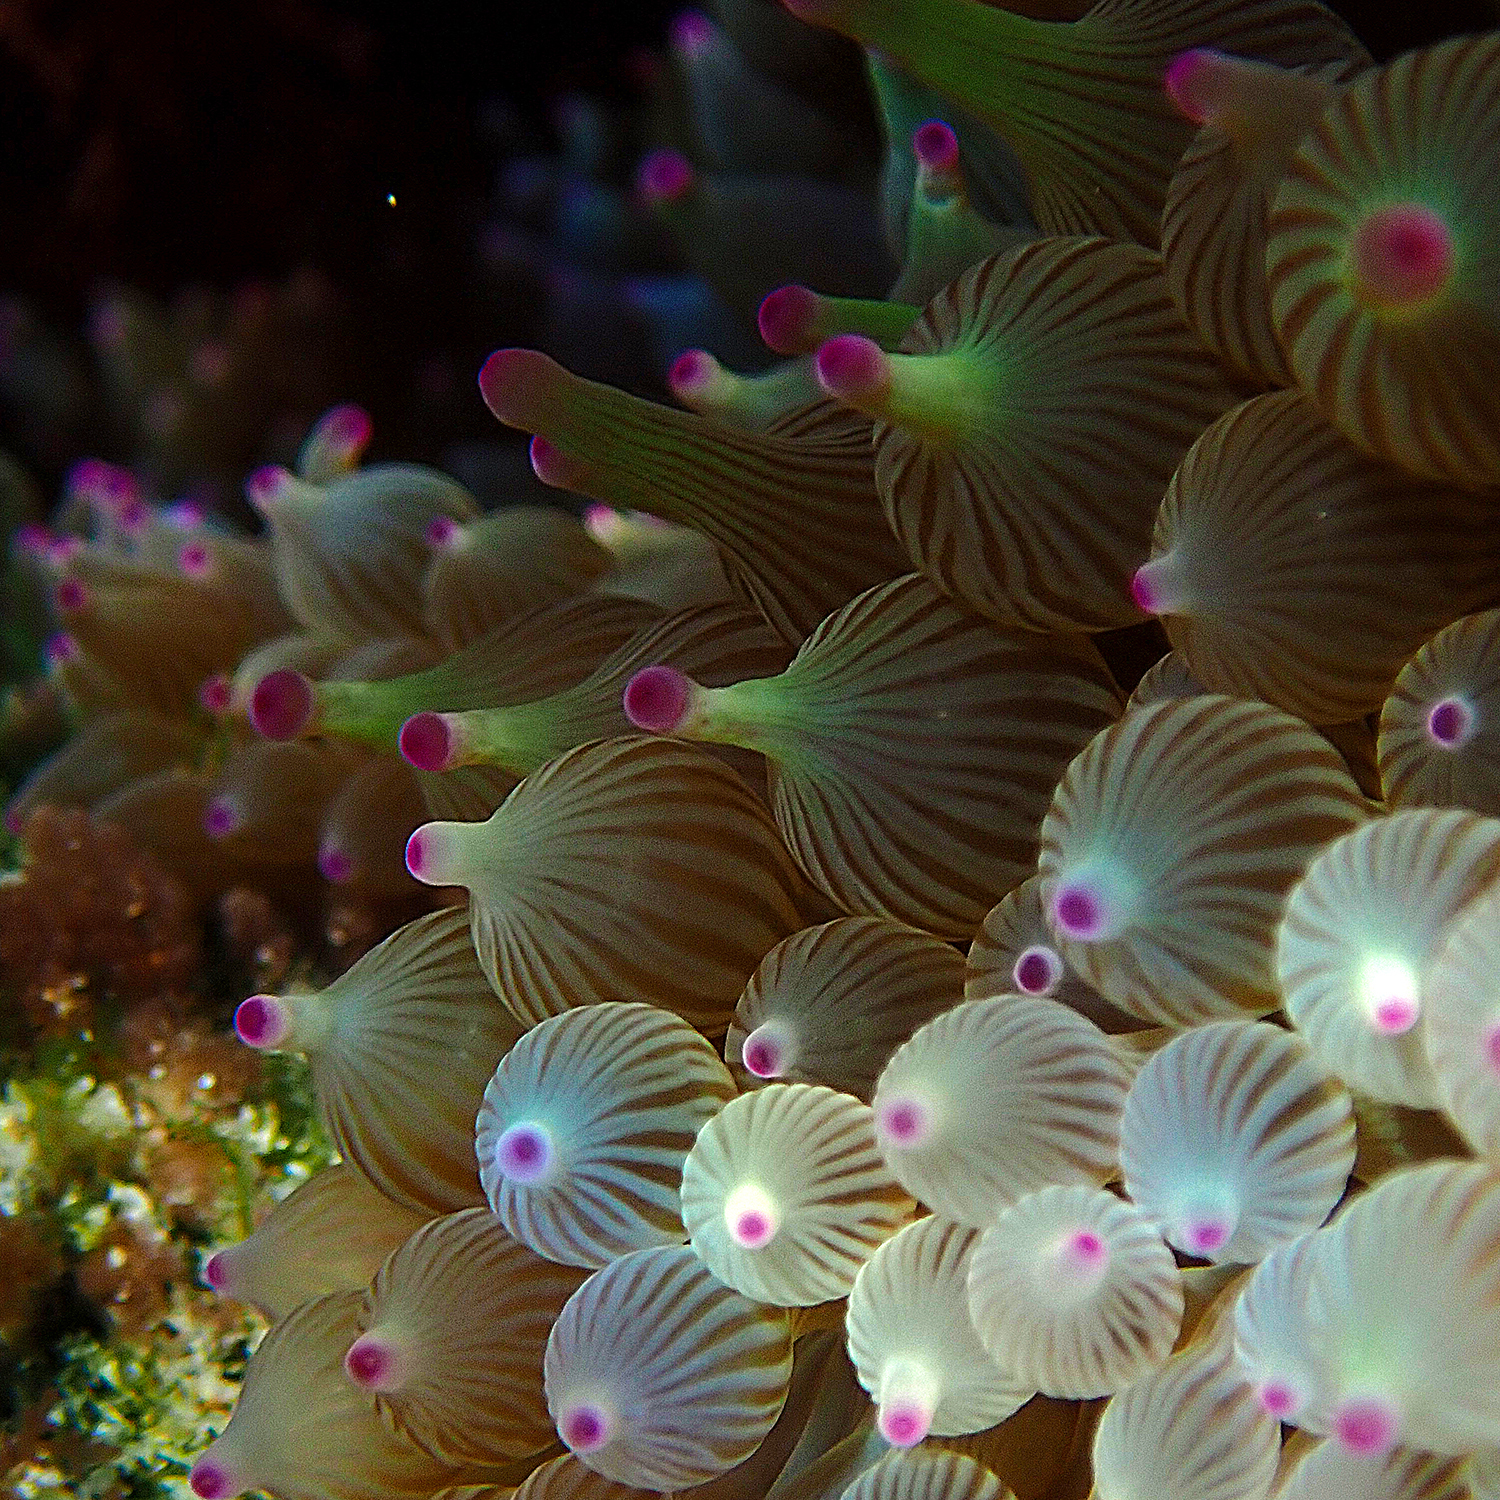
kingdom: Animalia
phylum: Cnidaria
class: Anthozoa
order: Actiniaria
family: Actiniidae
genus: Entacmaea
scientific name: Entacmaea quadricolor
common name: Bulb tentacle sea anemone
